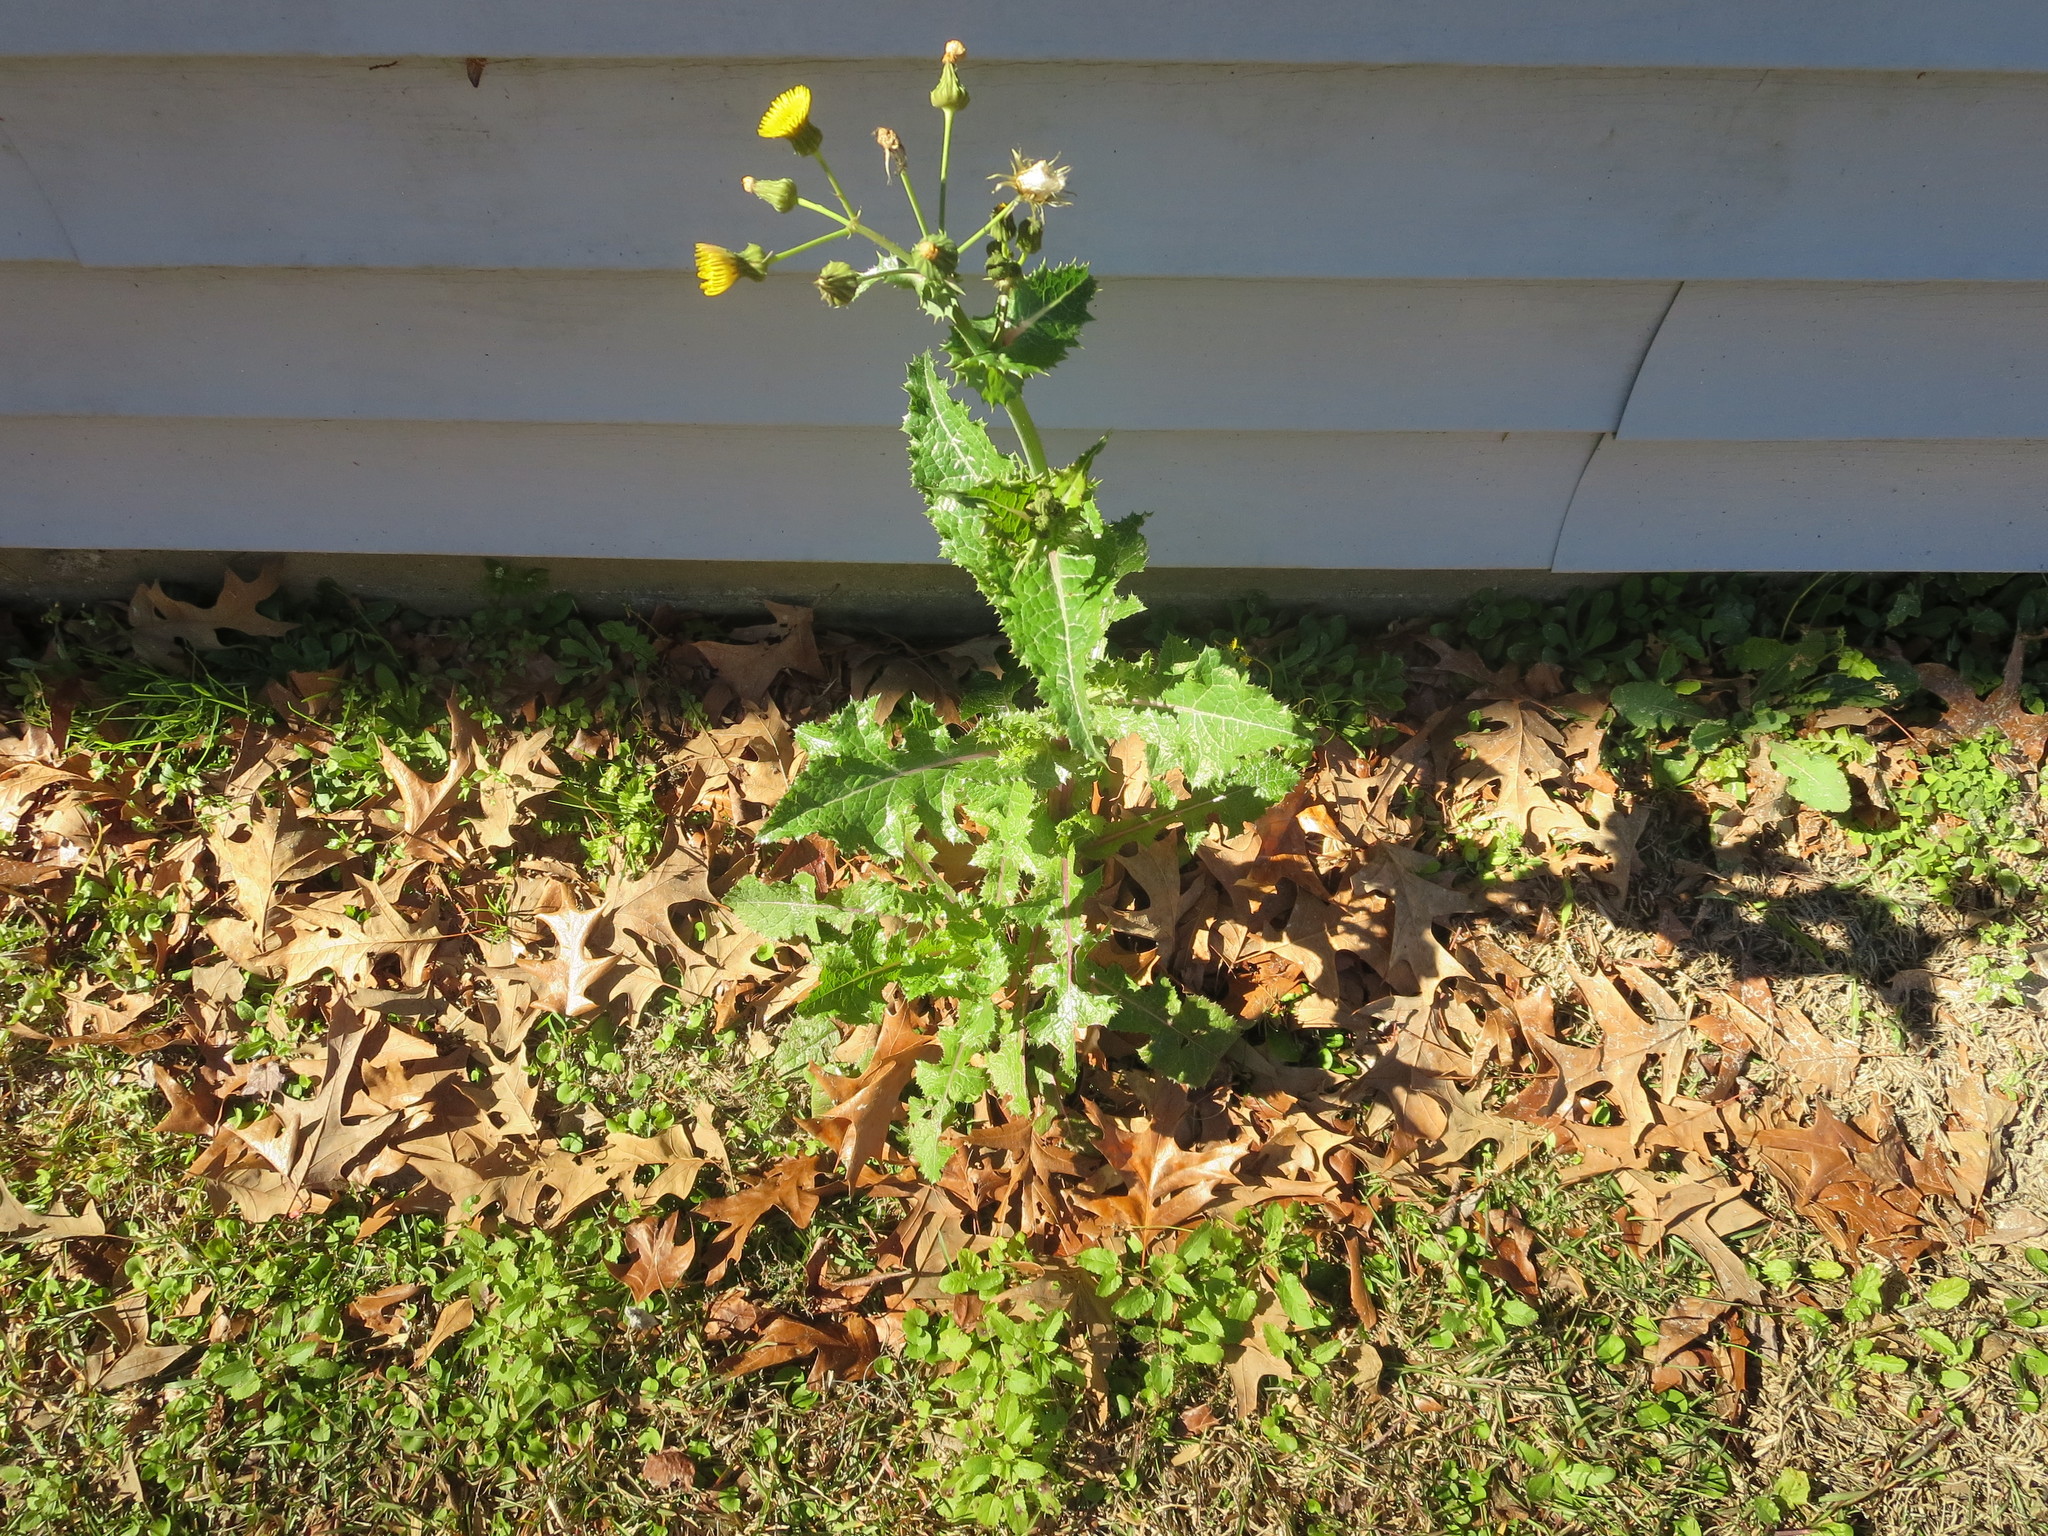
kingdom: Plantae
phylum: Tracheophyta
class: Magnoliopsida
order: Asterales
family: Asteraceae
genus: Sonchus
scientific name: Sonchus asper
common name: Prickly sow-thistle
